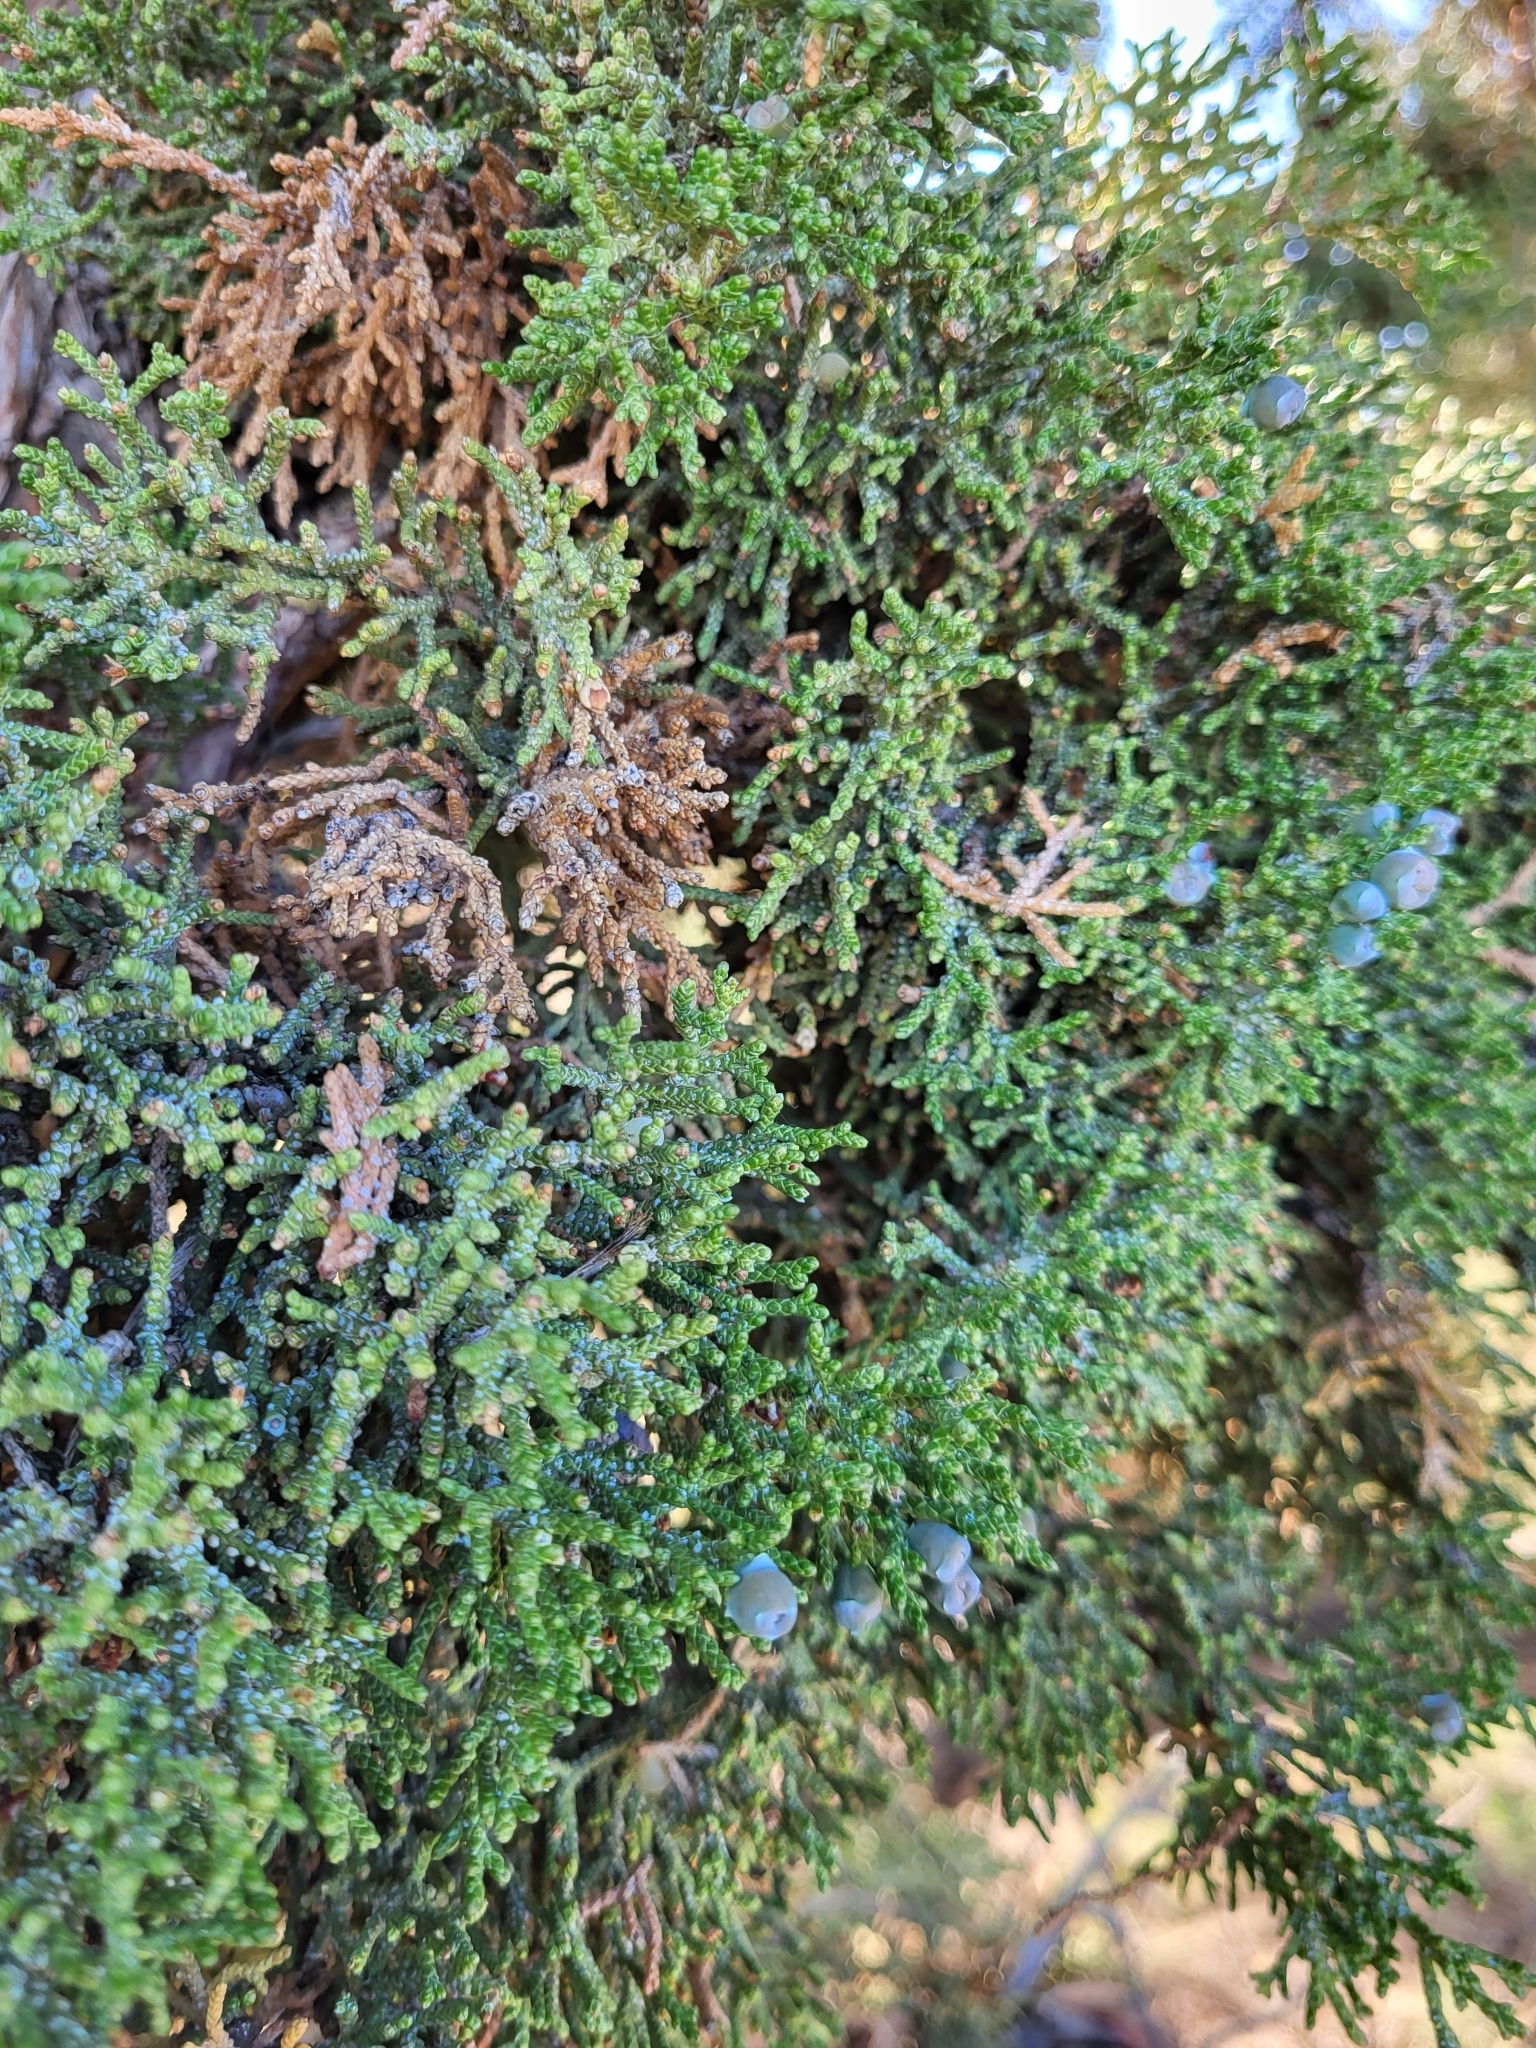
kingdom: Plantae
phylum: Tracheophyta
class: Pinopsida
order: Pinales
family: Cupressaceae
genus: Juniperus
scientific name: Juniperus occidentalis
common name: Western juniper
